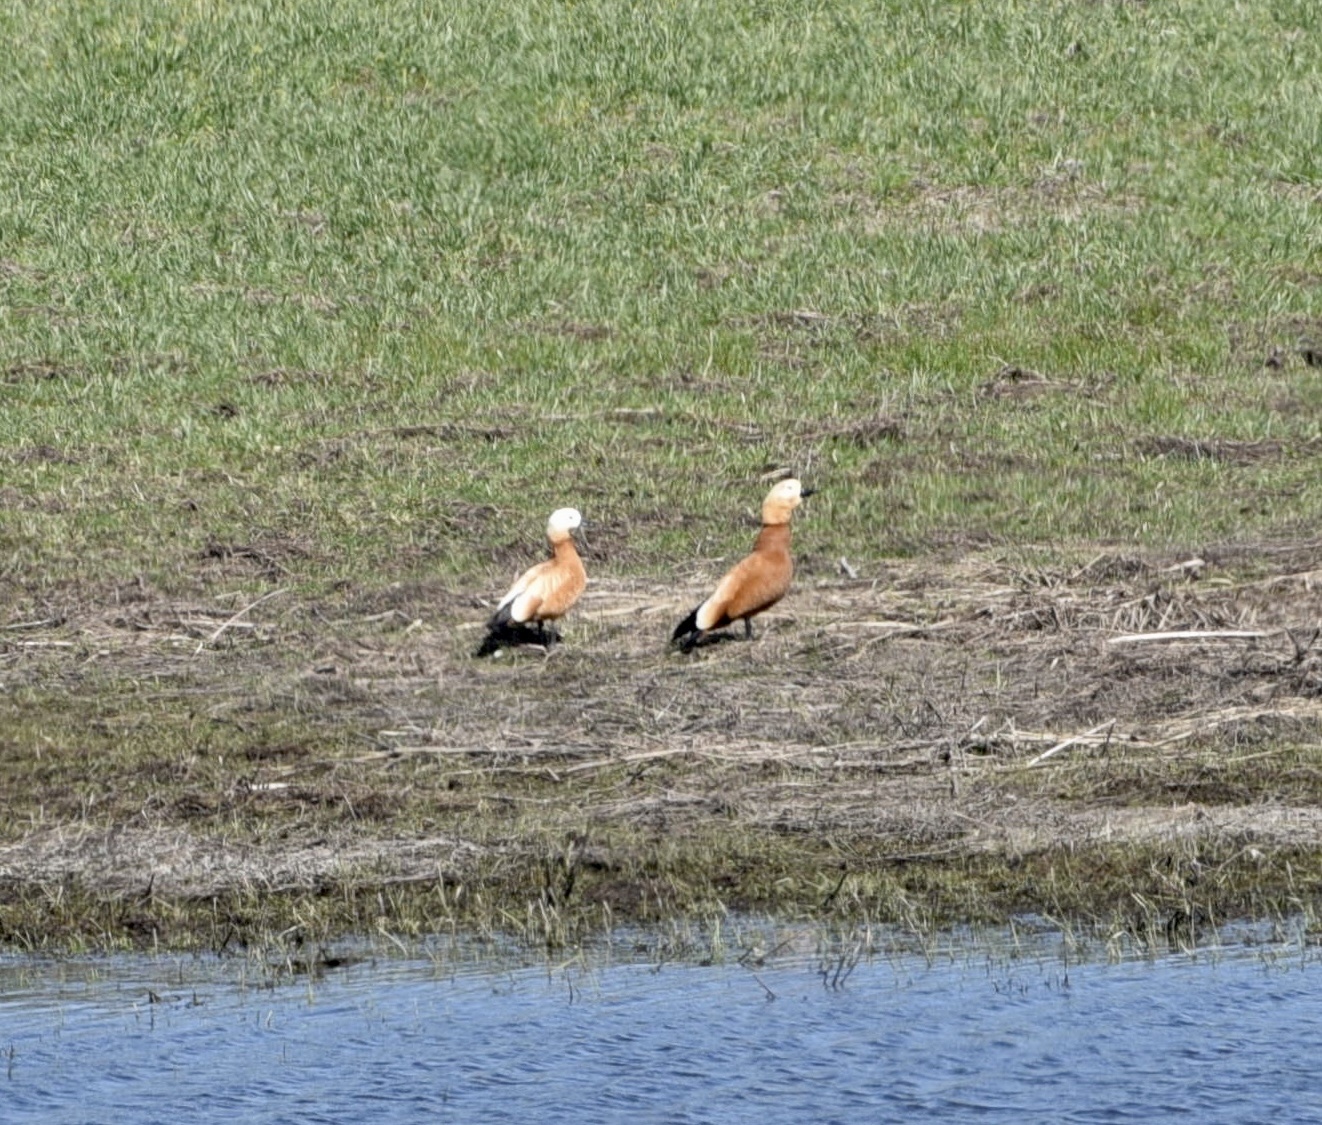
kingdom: Animalia
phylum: Chordata
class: Aves
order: Anseriformes
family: Anatidae
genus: Tadorna
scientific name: Tadorna ferruginea
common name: Ruddy shelduck
